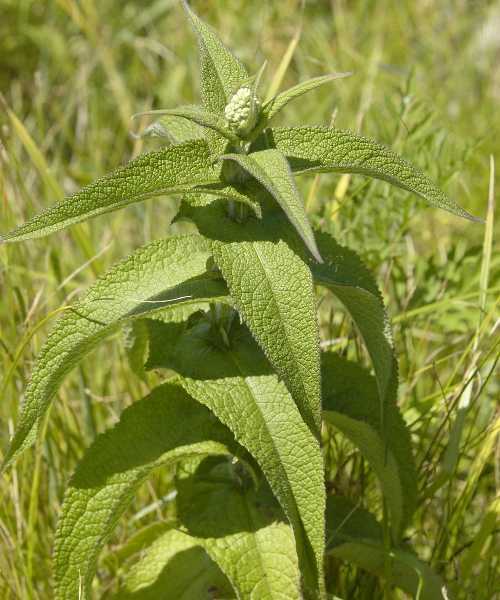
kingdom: Plantae
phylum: Tracheophyta
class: Magnoliopsida
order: Asterales
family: Asteraceae
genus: Eupatorium
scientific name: Eupatorium perfoliatum
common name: Boneset
